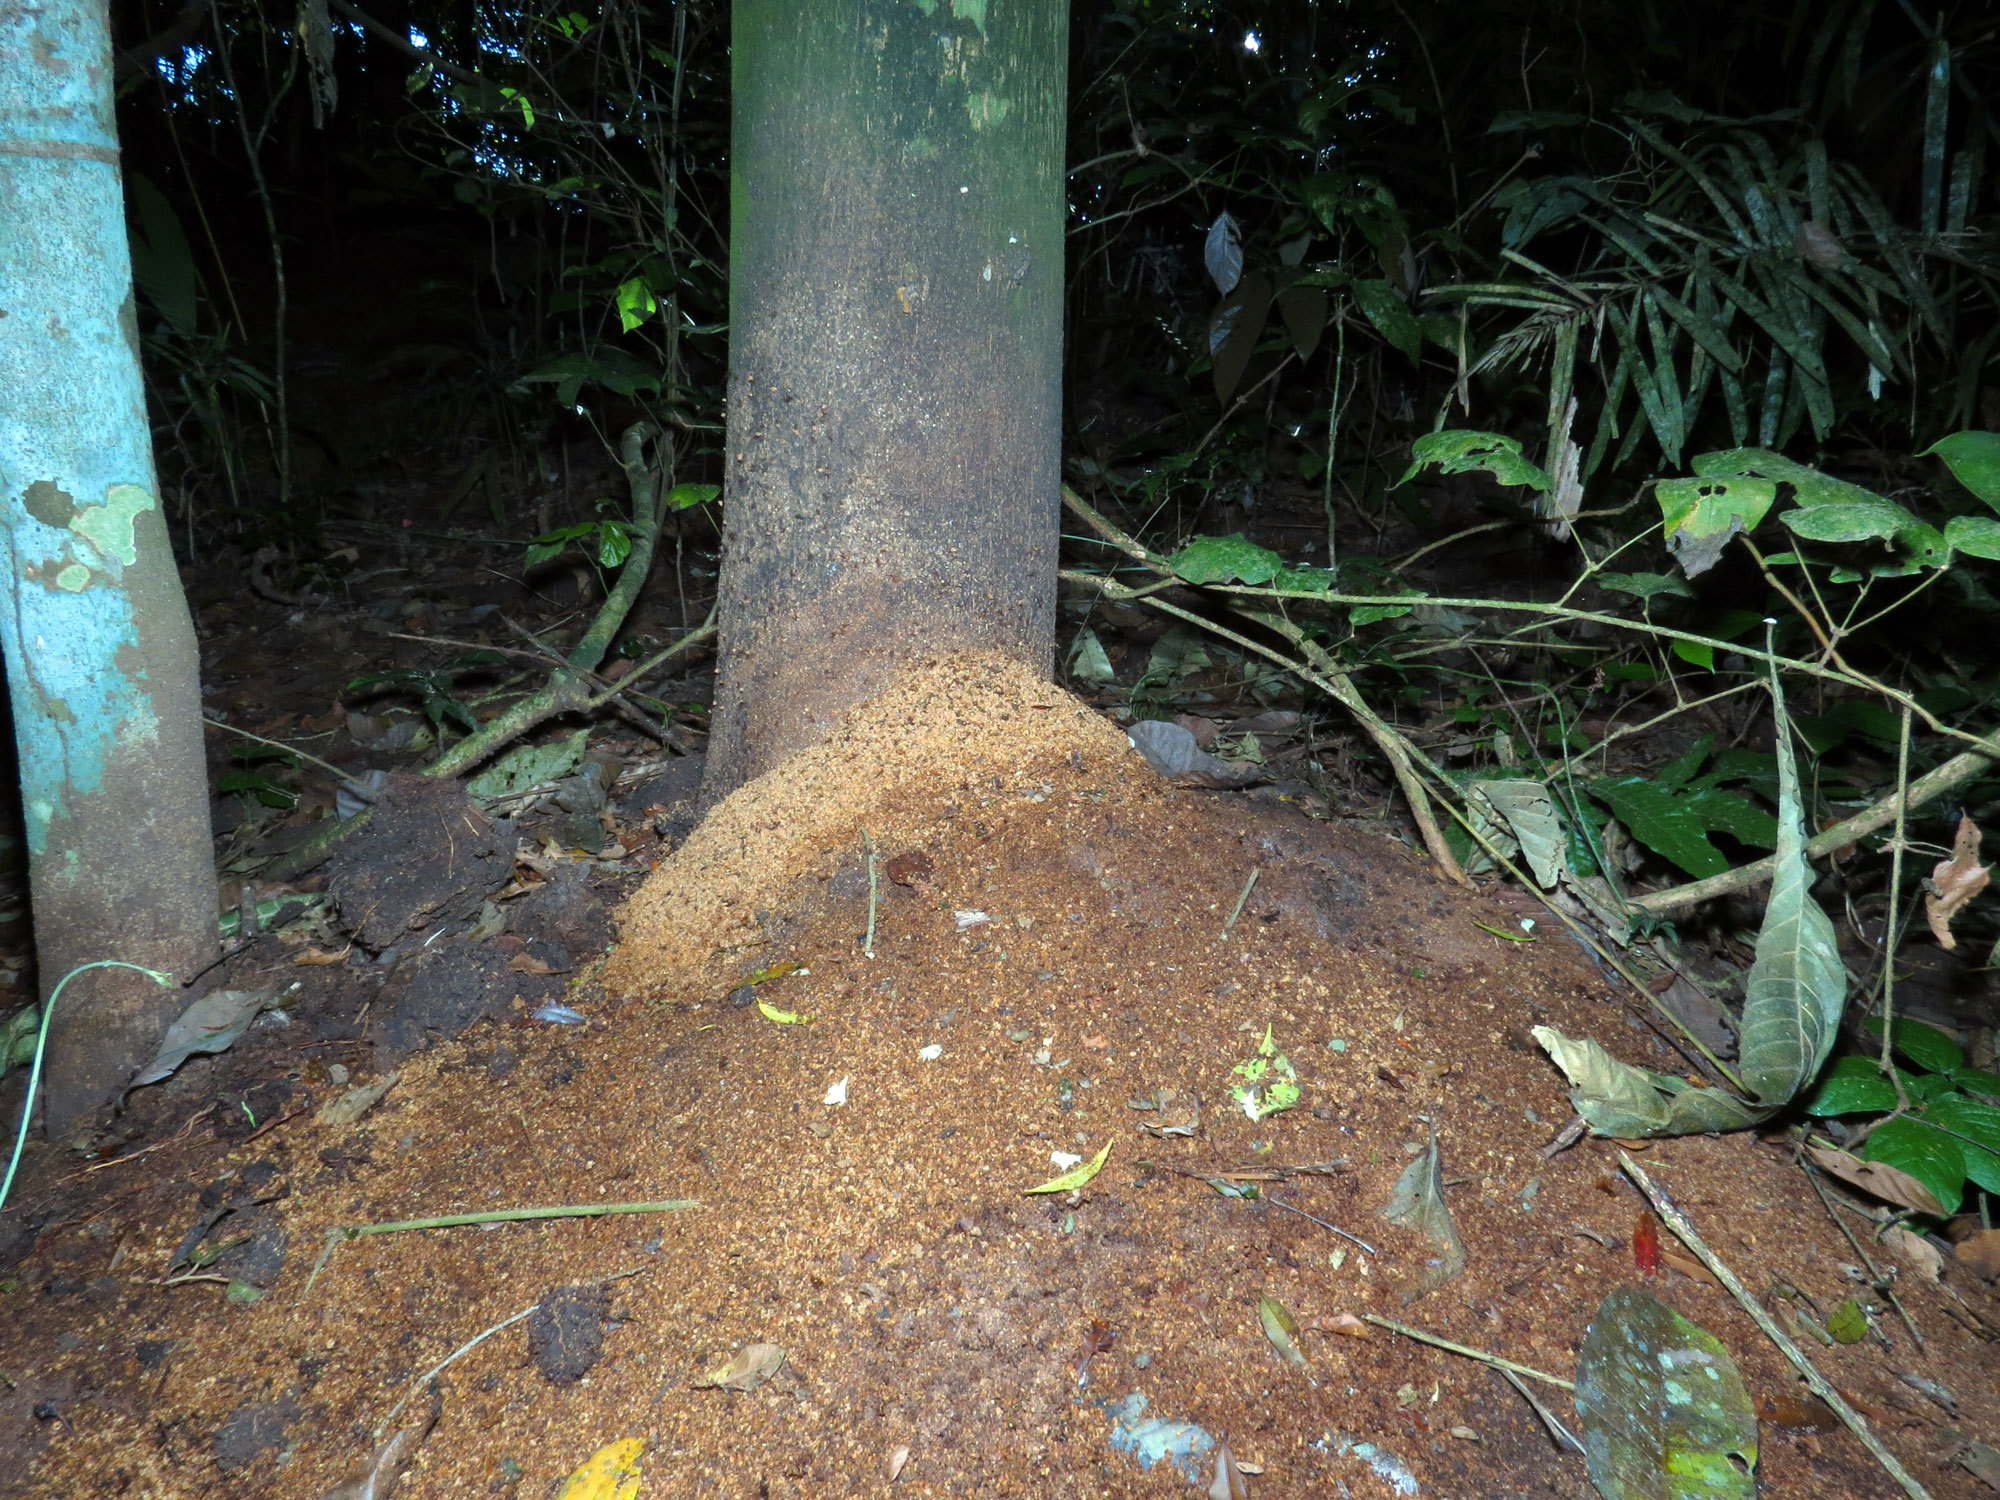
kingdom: Animalia
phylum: Arthropoda
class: Insecta
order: Hymenoptera
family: Formicidae
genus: Atta
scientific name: Atta colombica
